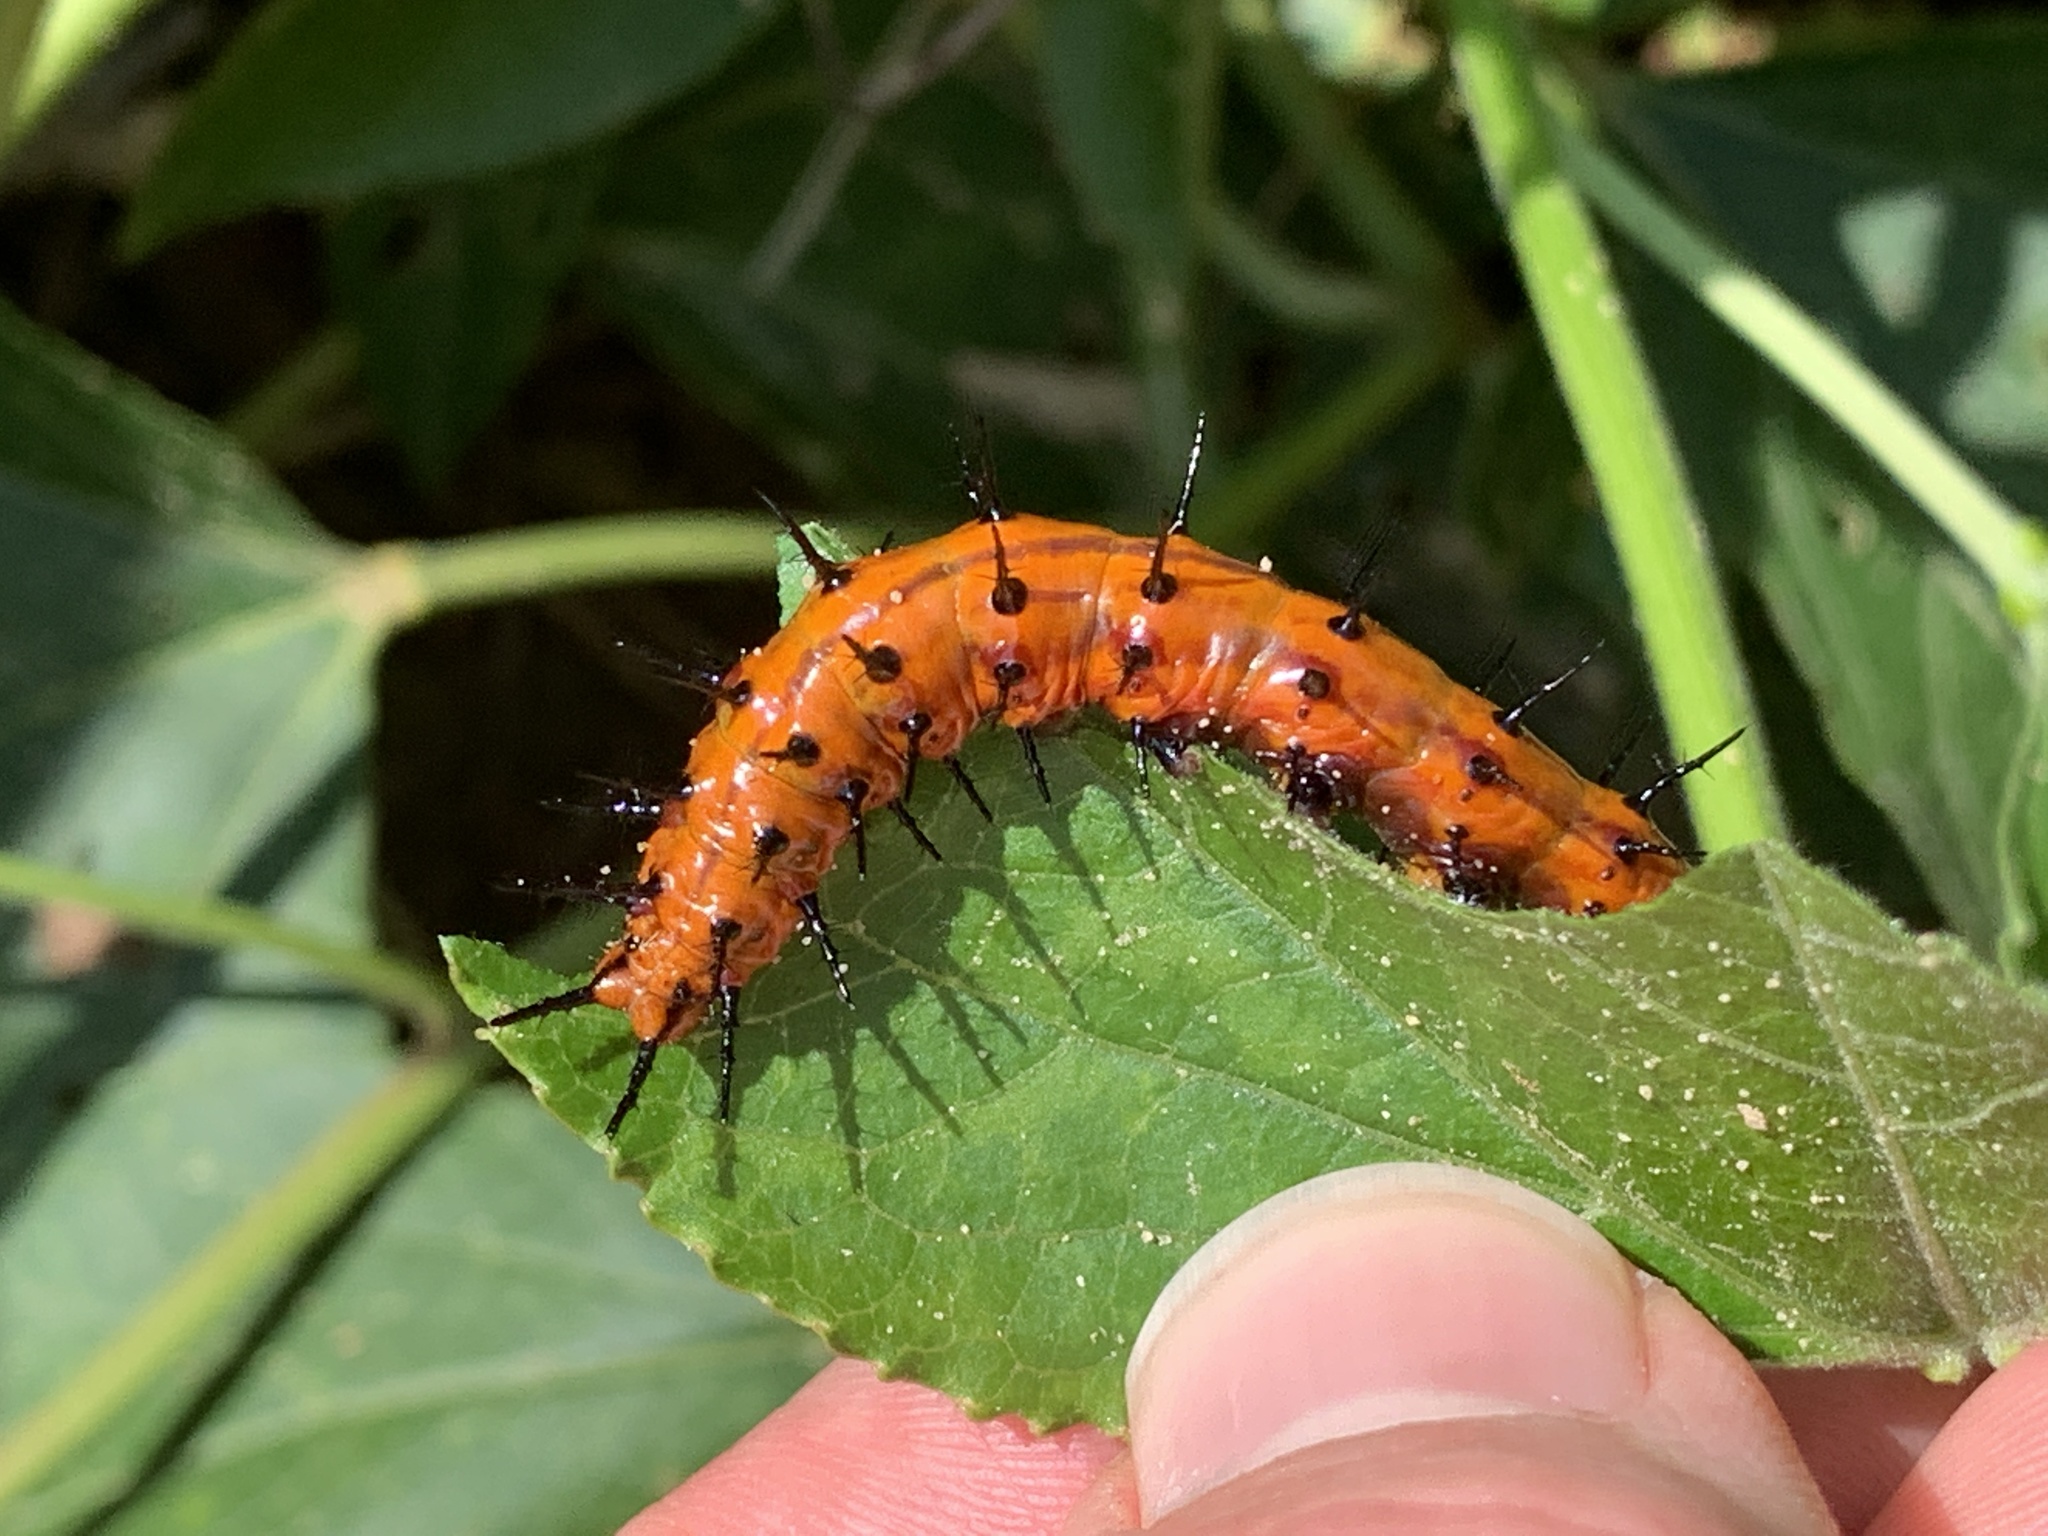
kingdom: Animalia
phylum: Arthropoda
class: Insecta
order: Lepidoptera
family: Nymphalidae
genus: Dione
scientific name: Dione vanillae
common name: Gulf fritillary
